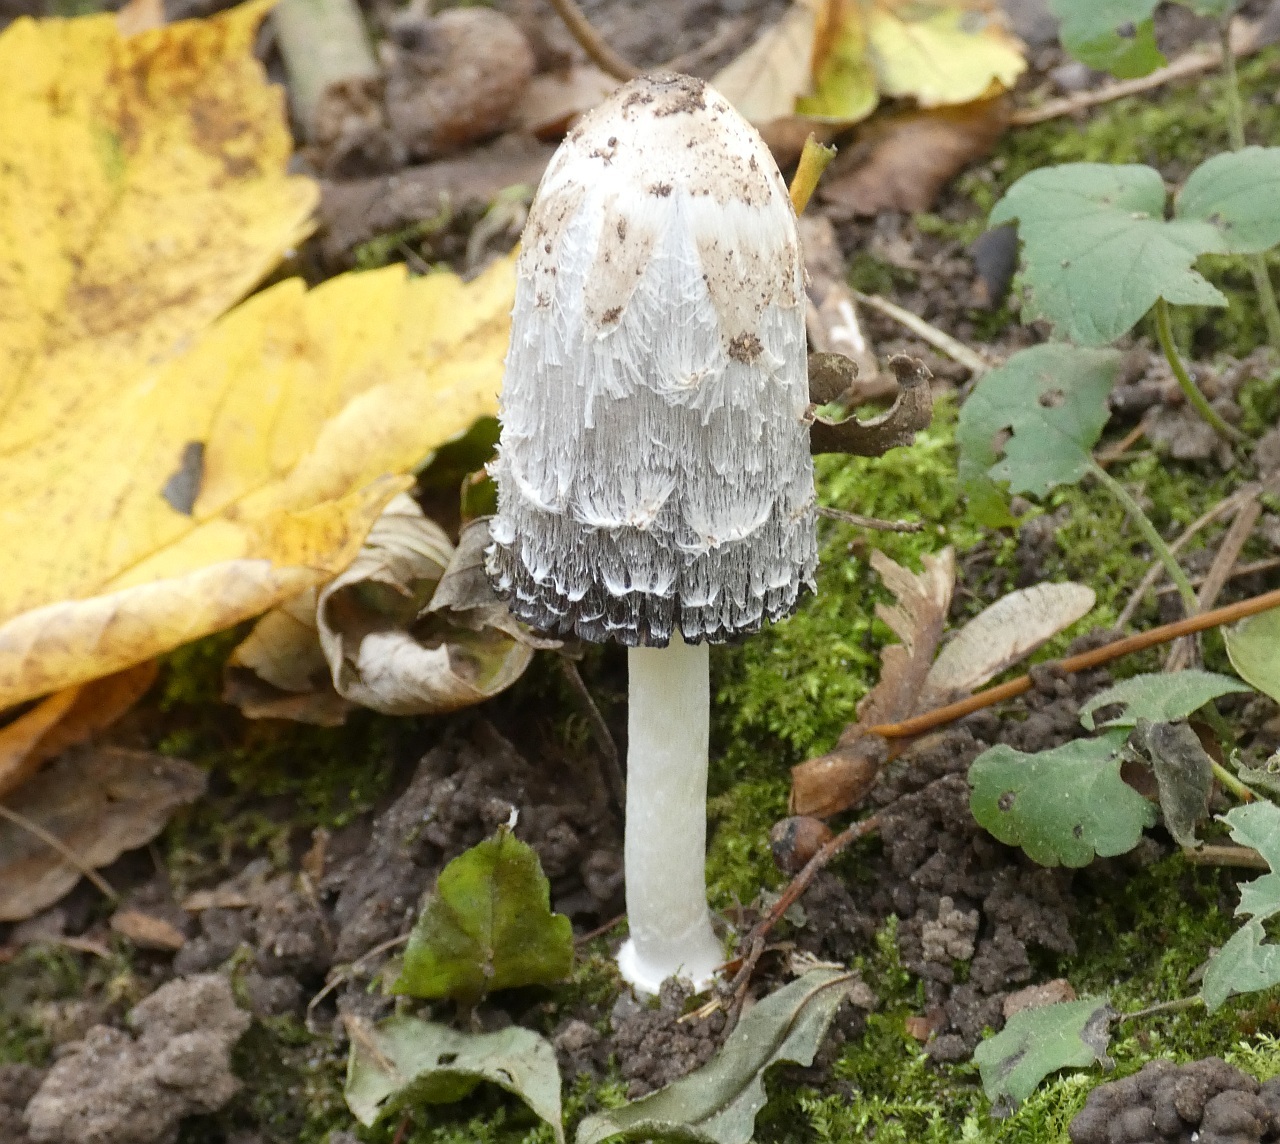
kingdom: Fungi
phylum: Basidiomycota
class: Agaricomycetes
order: Agaricales
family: Agaricaceae
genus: Coprinus
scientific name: Coprinus comatus
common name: Lawyer's wig
